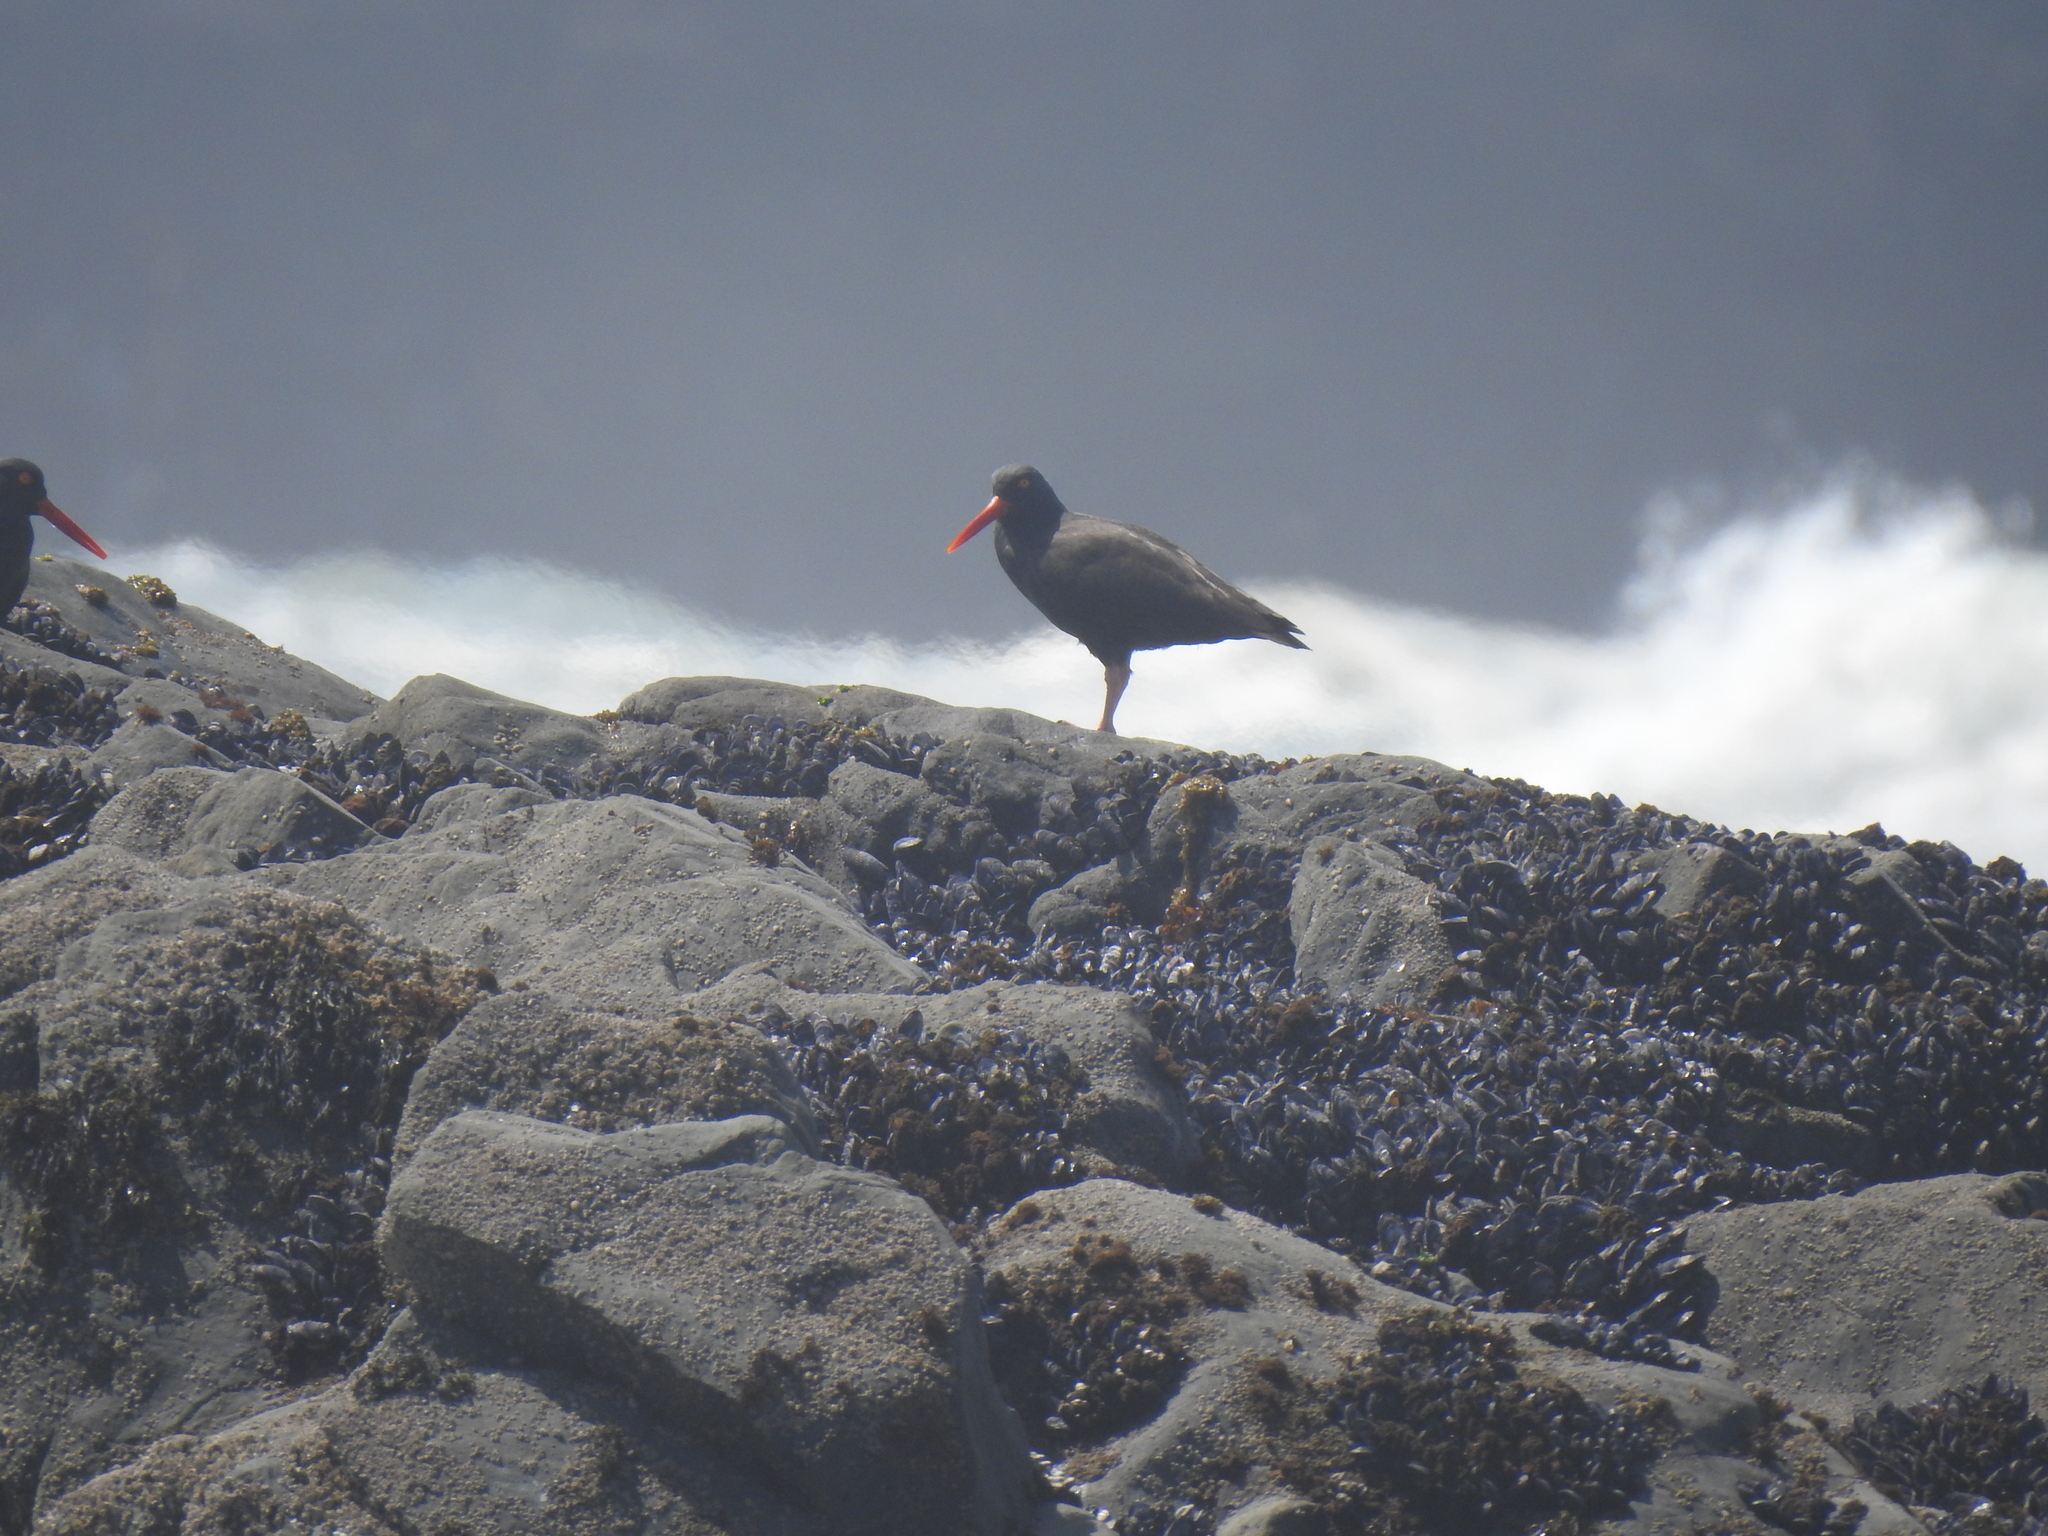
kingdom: Animalia
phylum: Chordata
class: Aves
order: Charadriiformes
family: Haematopodidae
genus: Haematopus
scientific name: Haematopus bachmani
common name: Black oystercatcher
